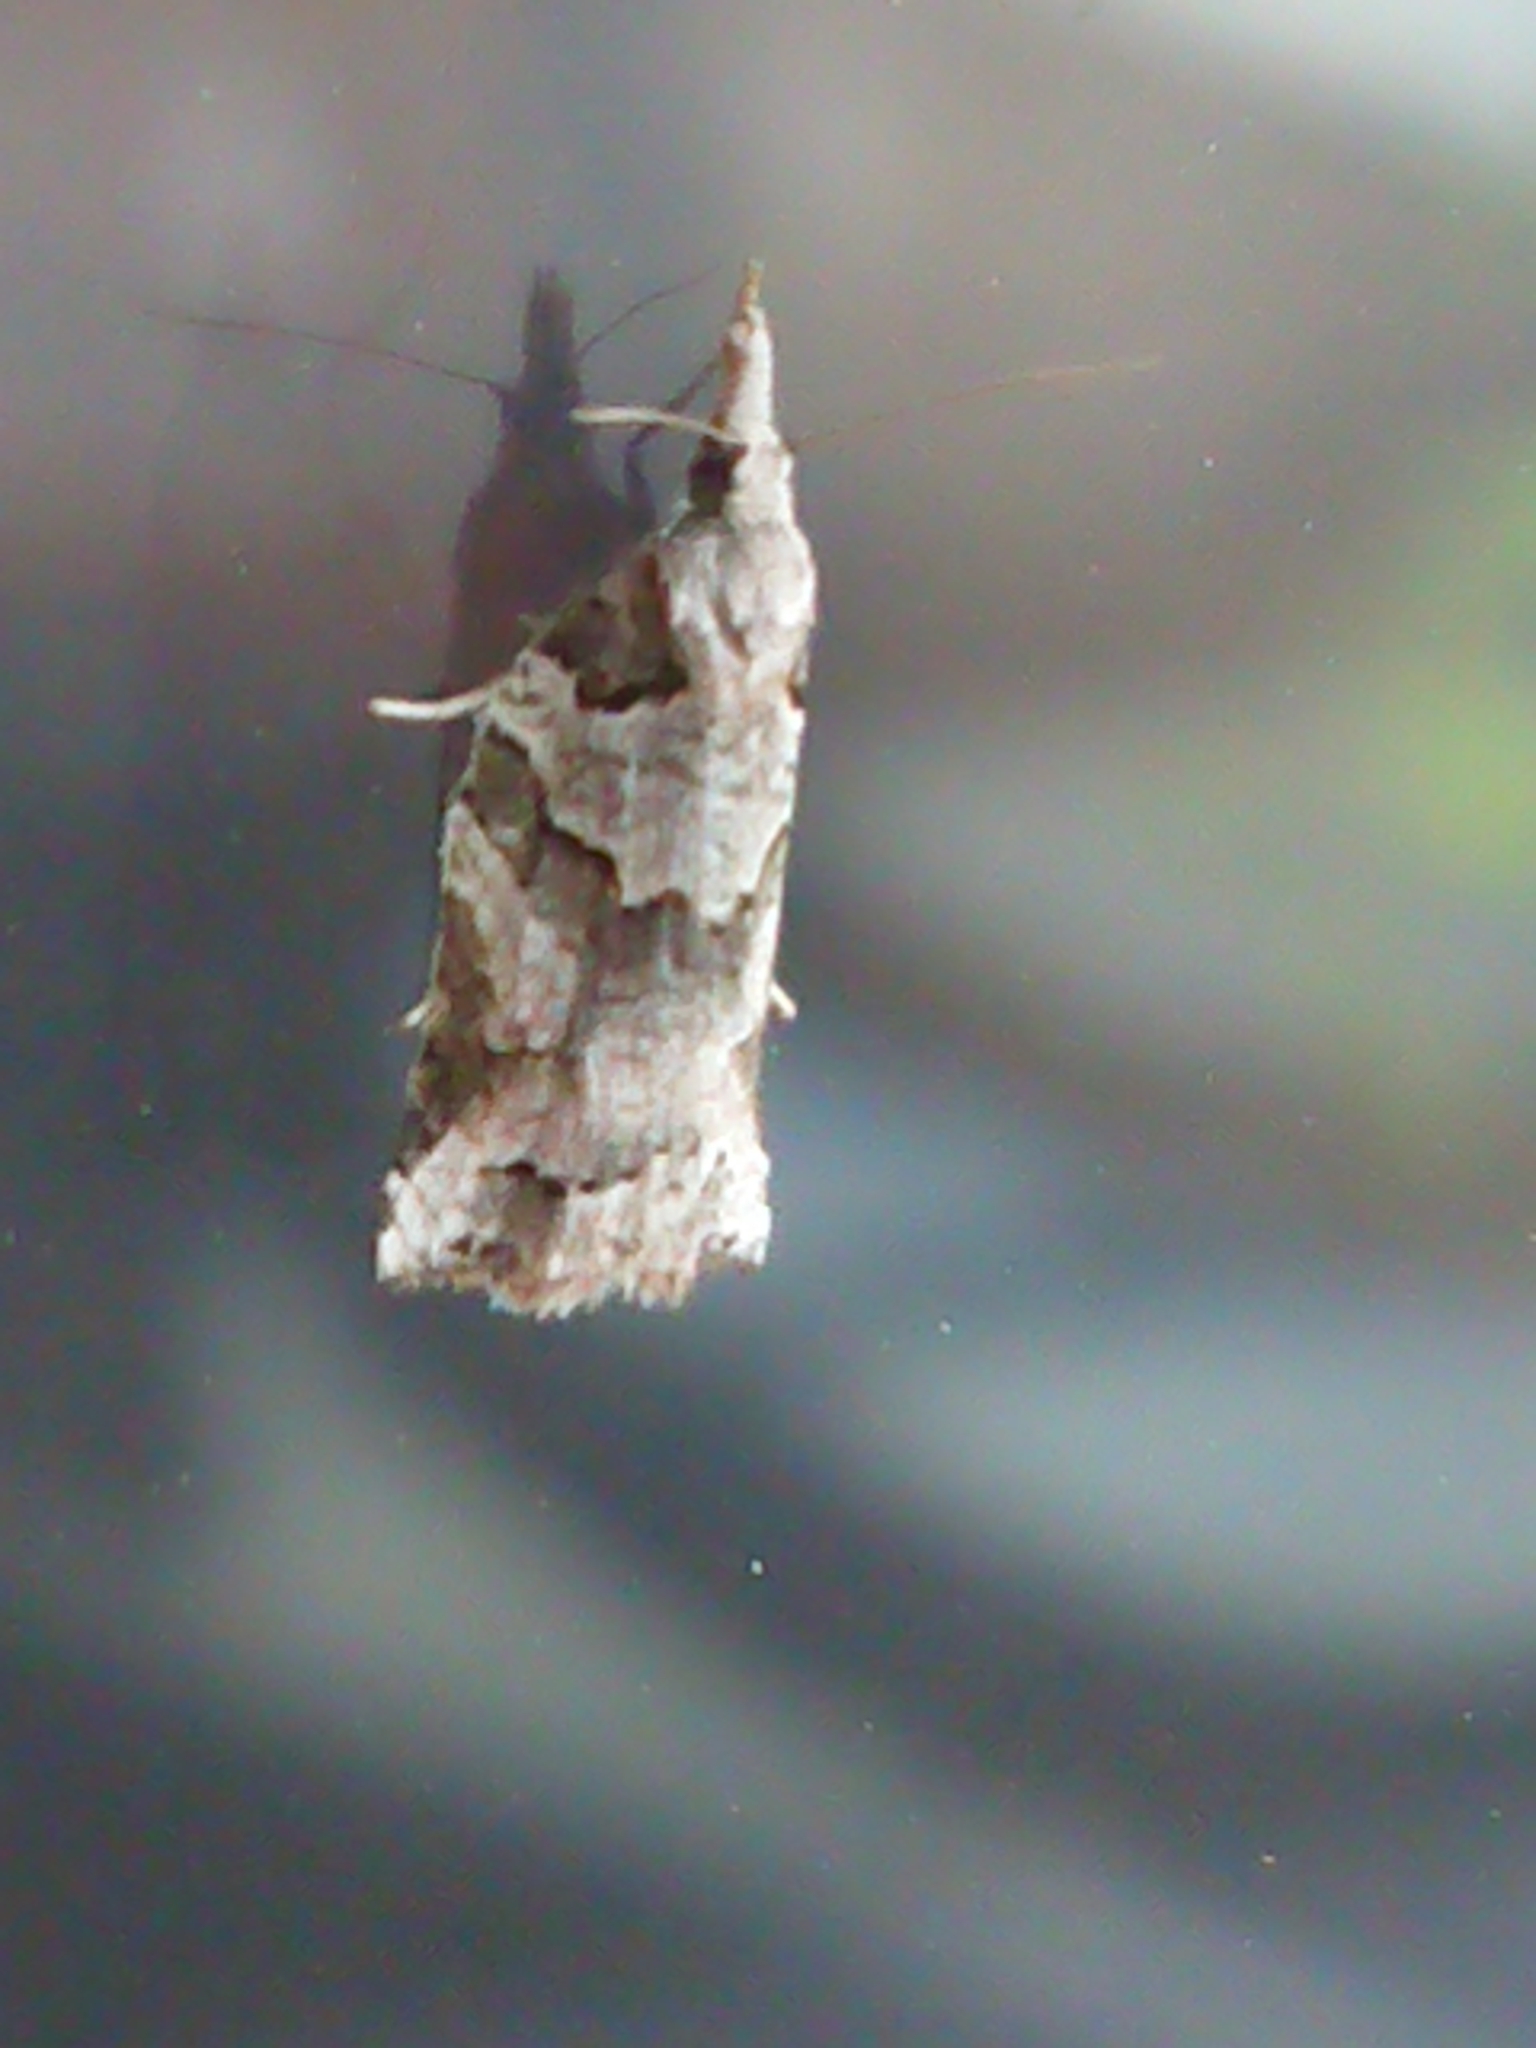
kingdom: Animalia
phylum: Arthropoda
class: Insecta
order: Lepidoptera
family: Tortricidae
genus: Harmologa
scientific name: Harmologa amplexana
